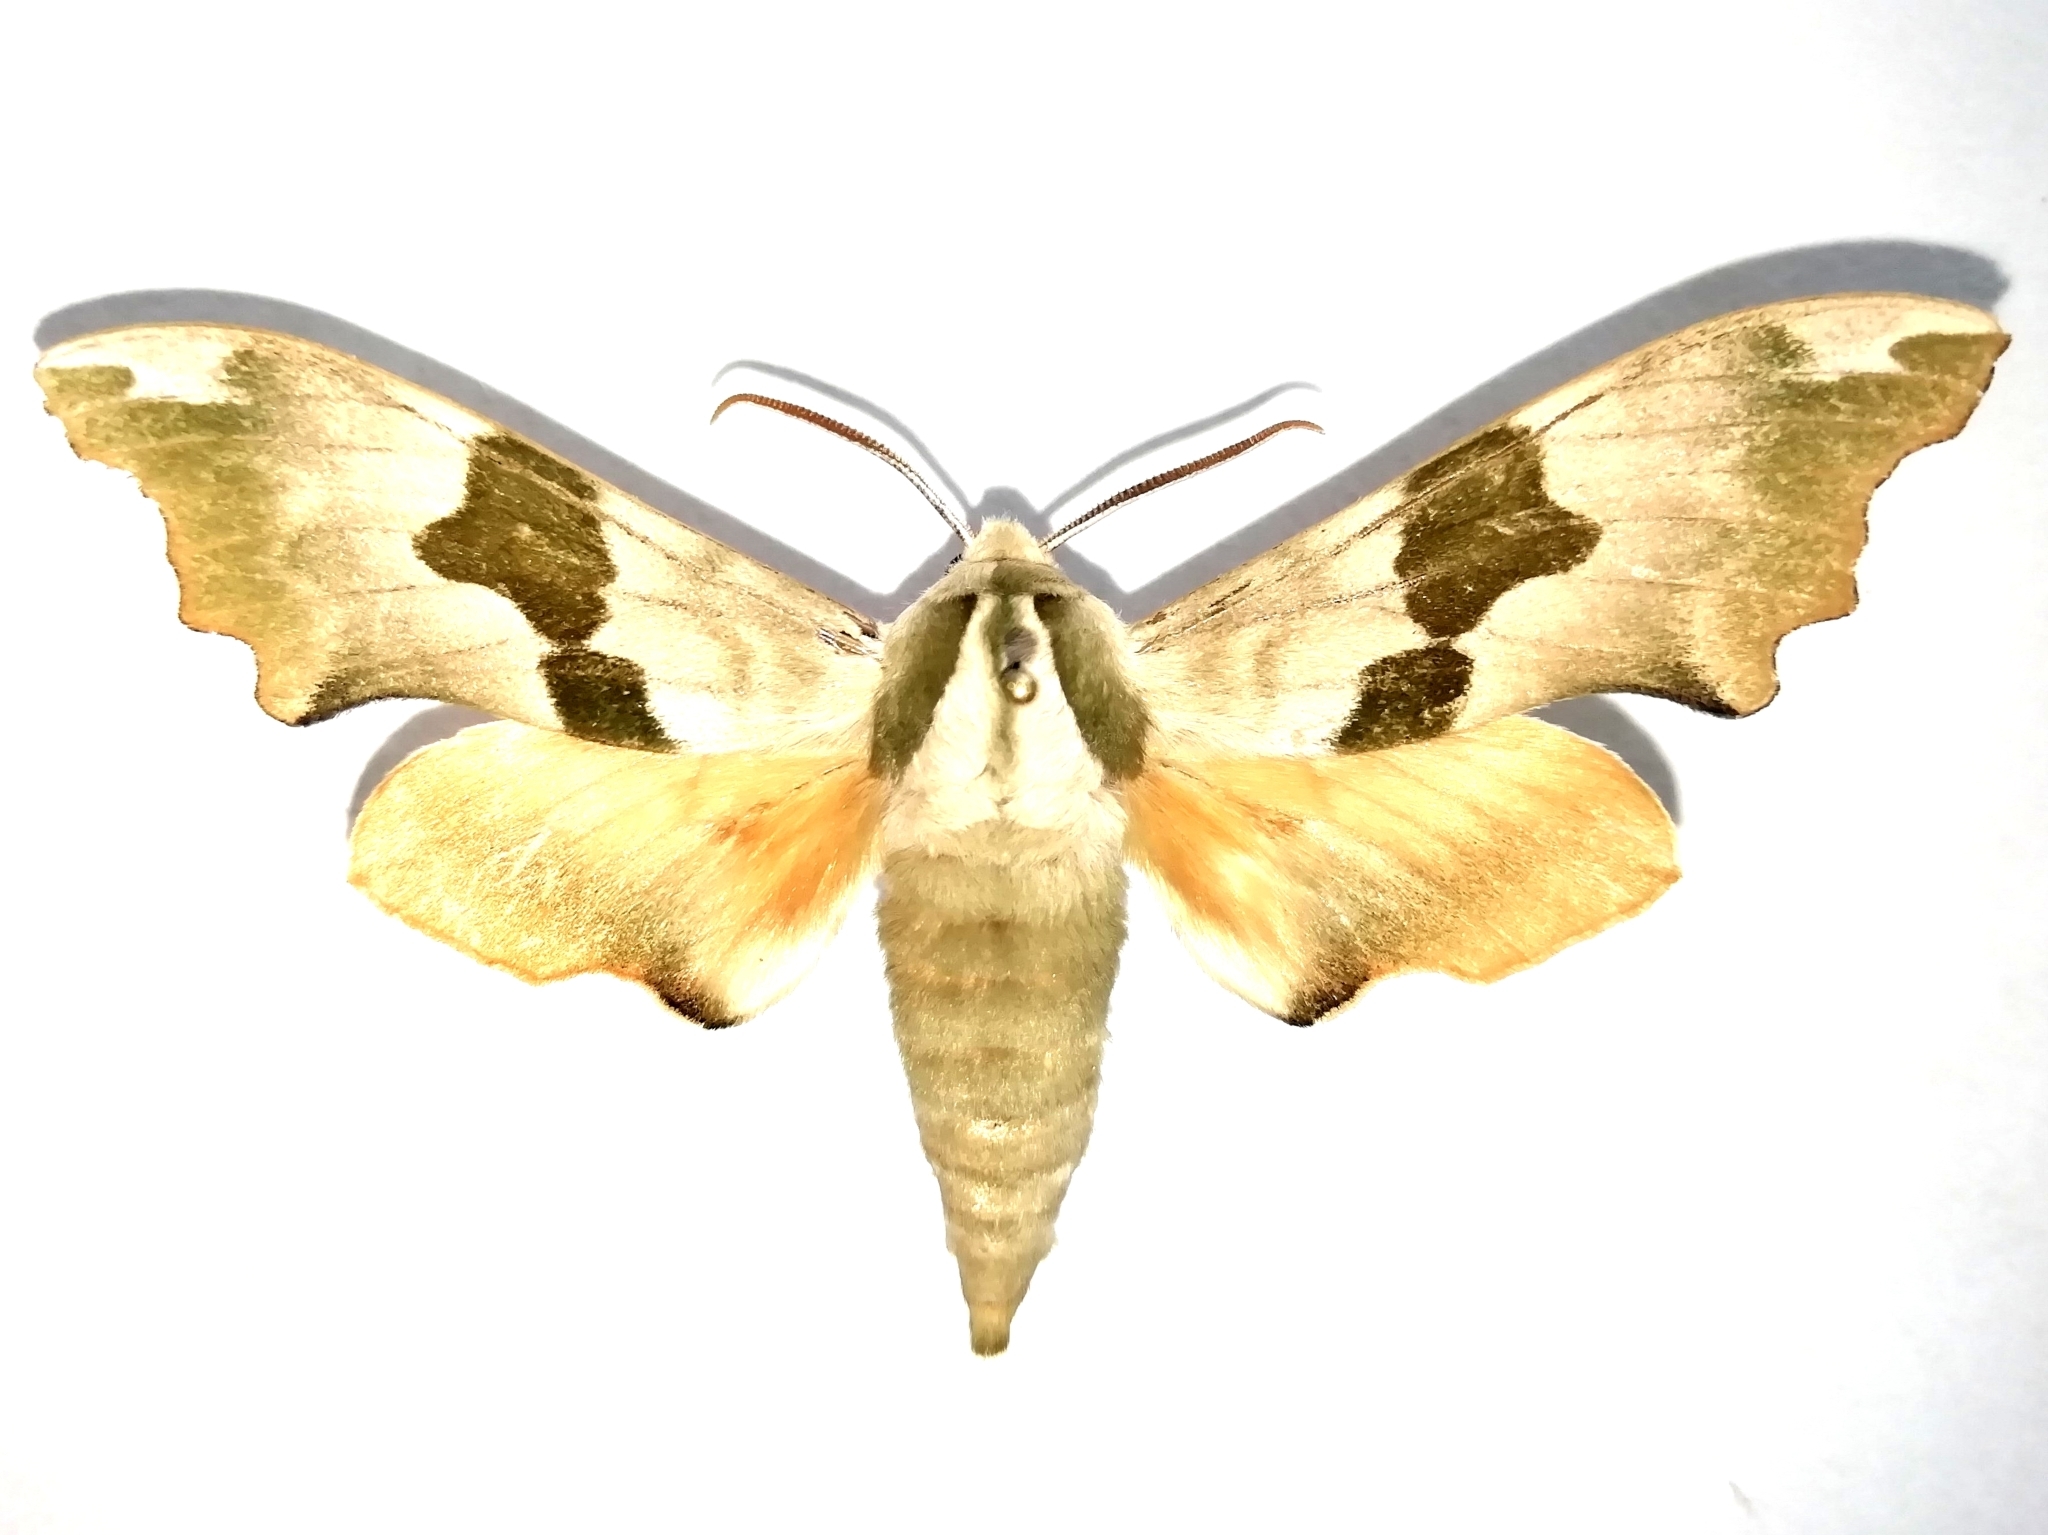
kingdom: Animalia
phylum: Arthropoda
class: Insecta
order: Lepidoptera
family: Sphingidae
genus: Mimas
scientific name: Mimas tiliae
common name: Lime hawk-moth
